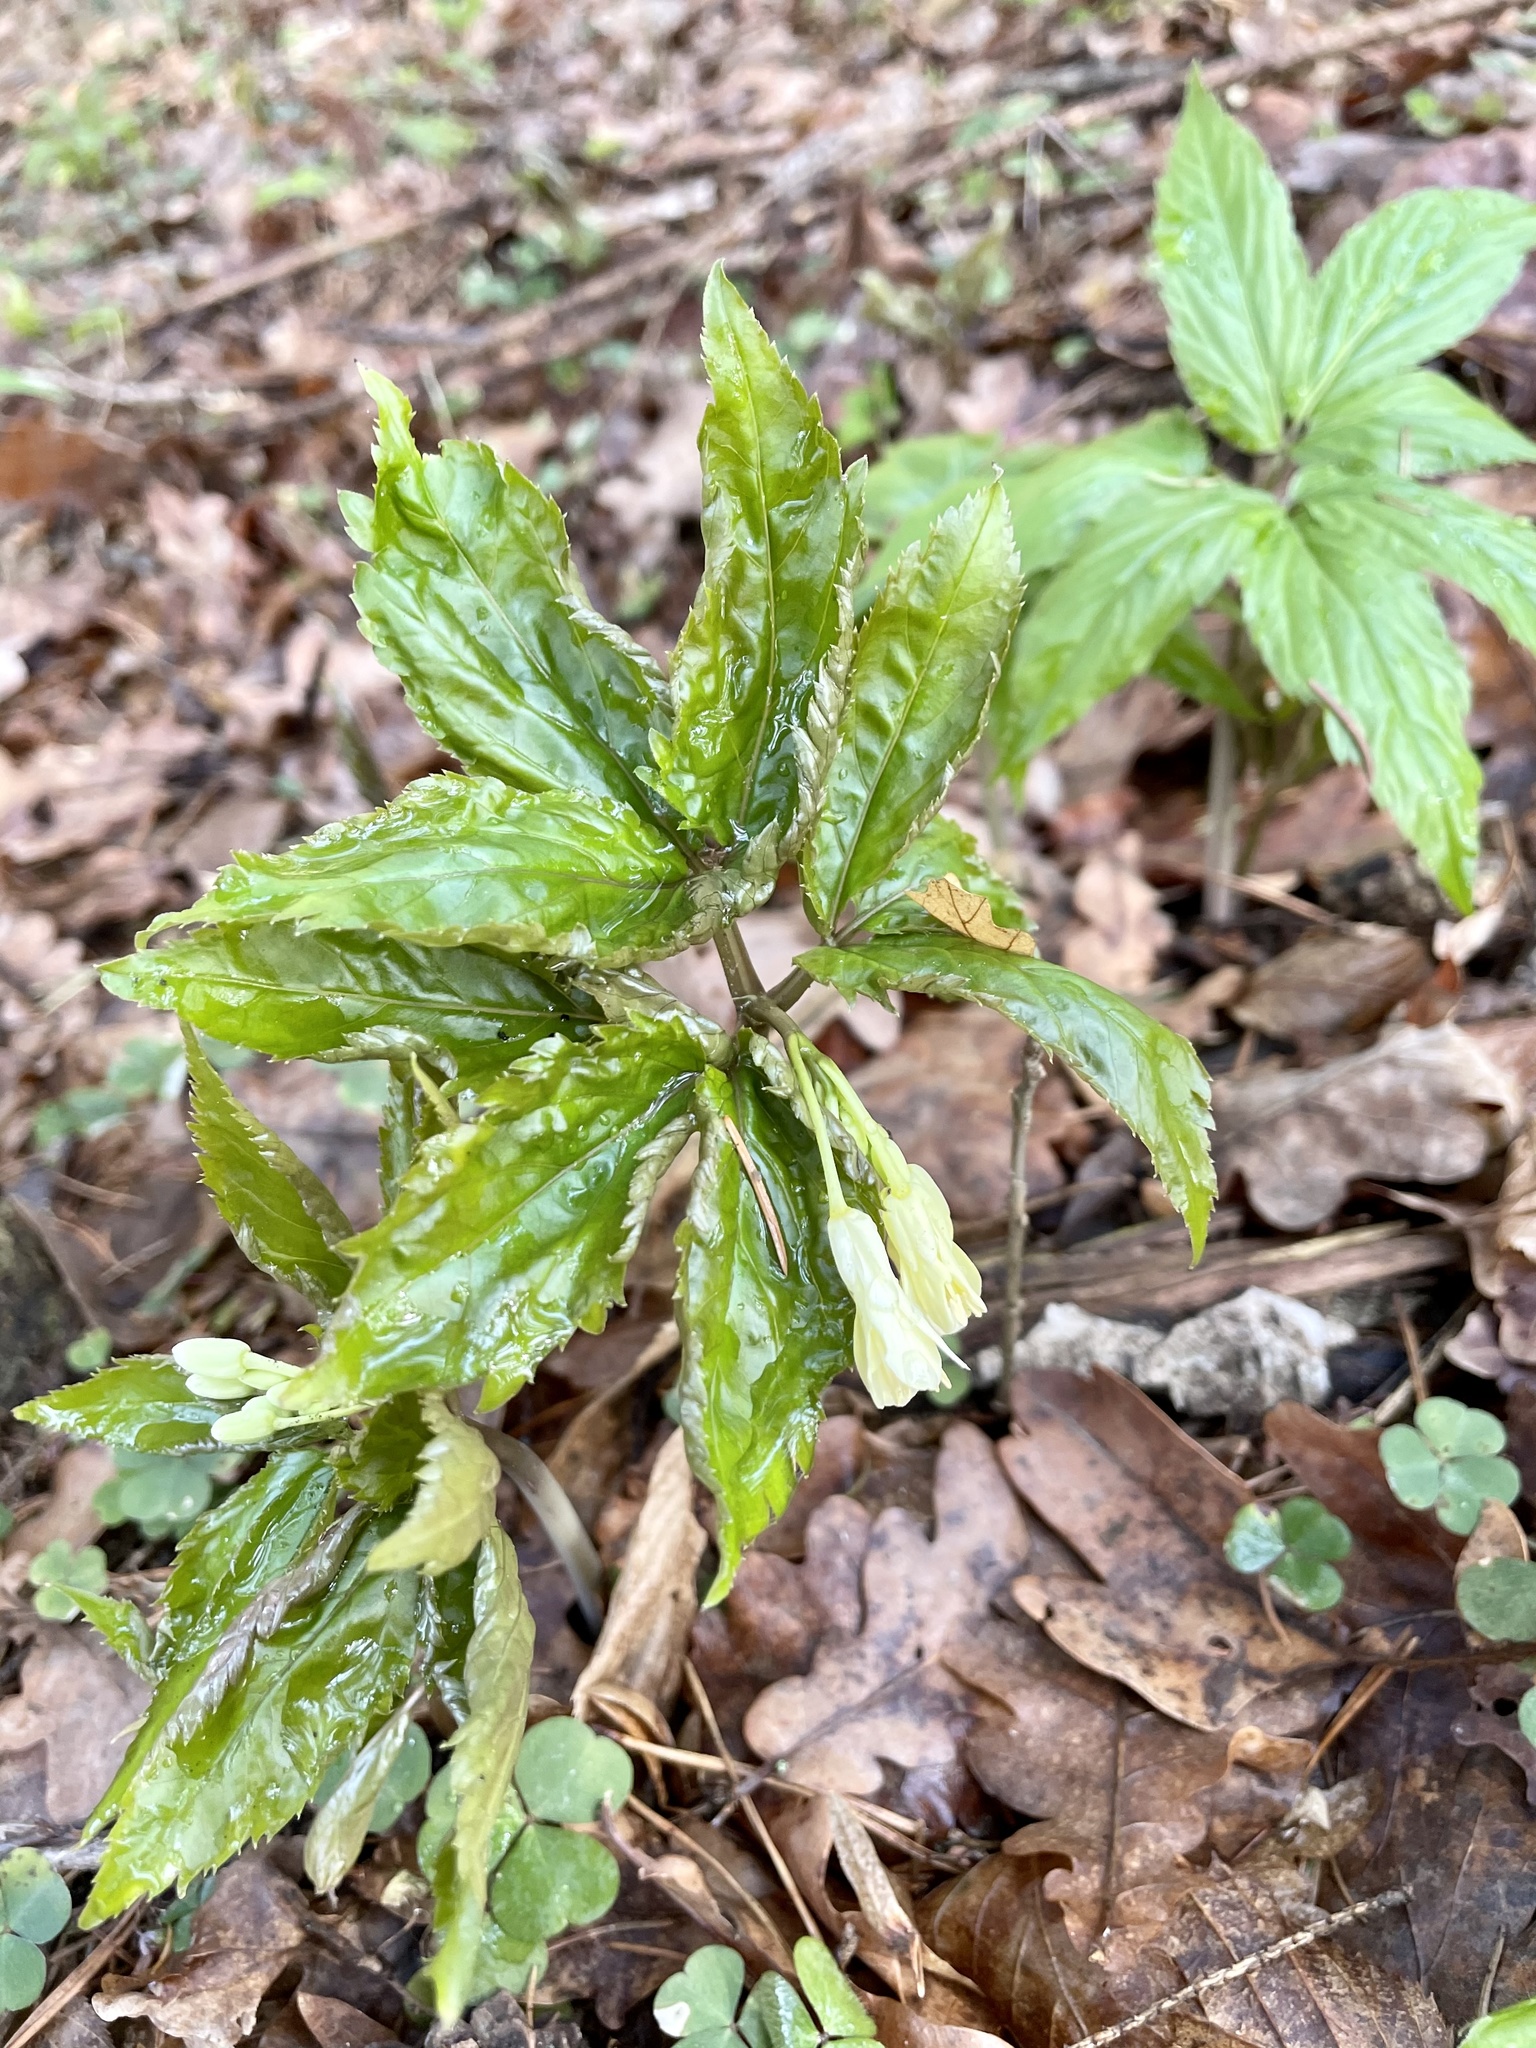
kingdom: Plantae
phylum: Tracheophyta
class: Magnoliopsida
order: Brassicales
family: Brassicaceae
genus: Cardamine
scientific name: Cardamine enneaphyllos
